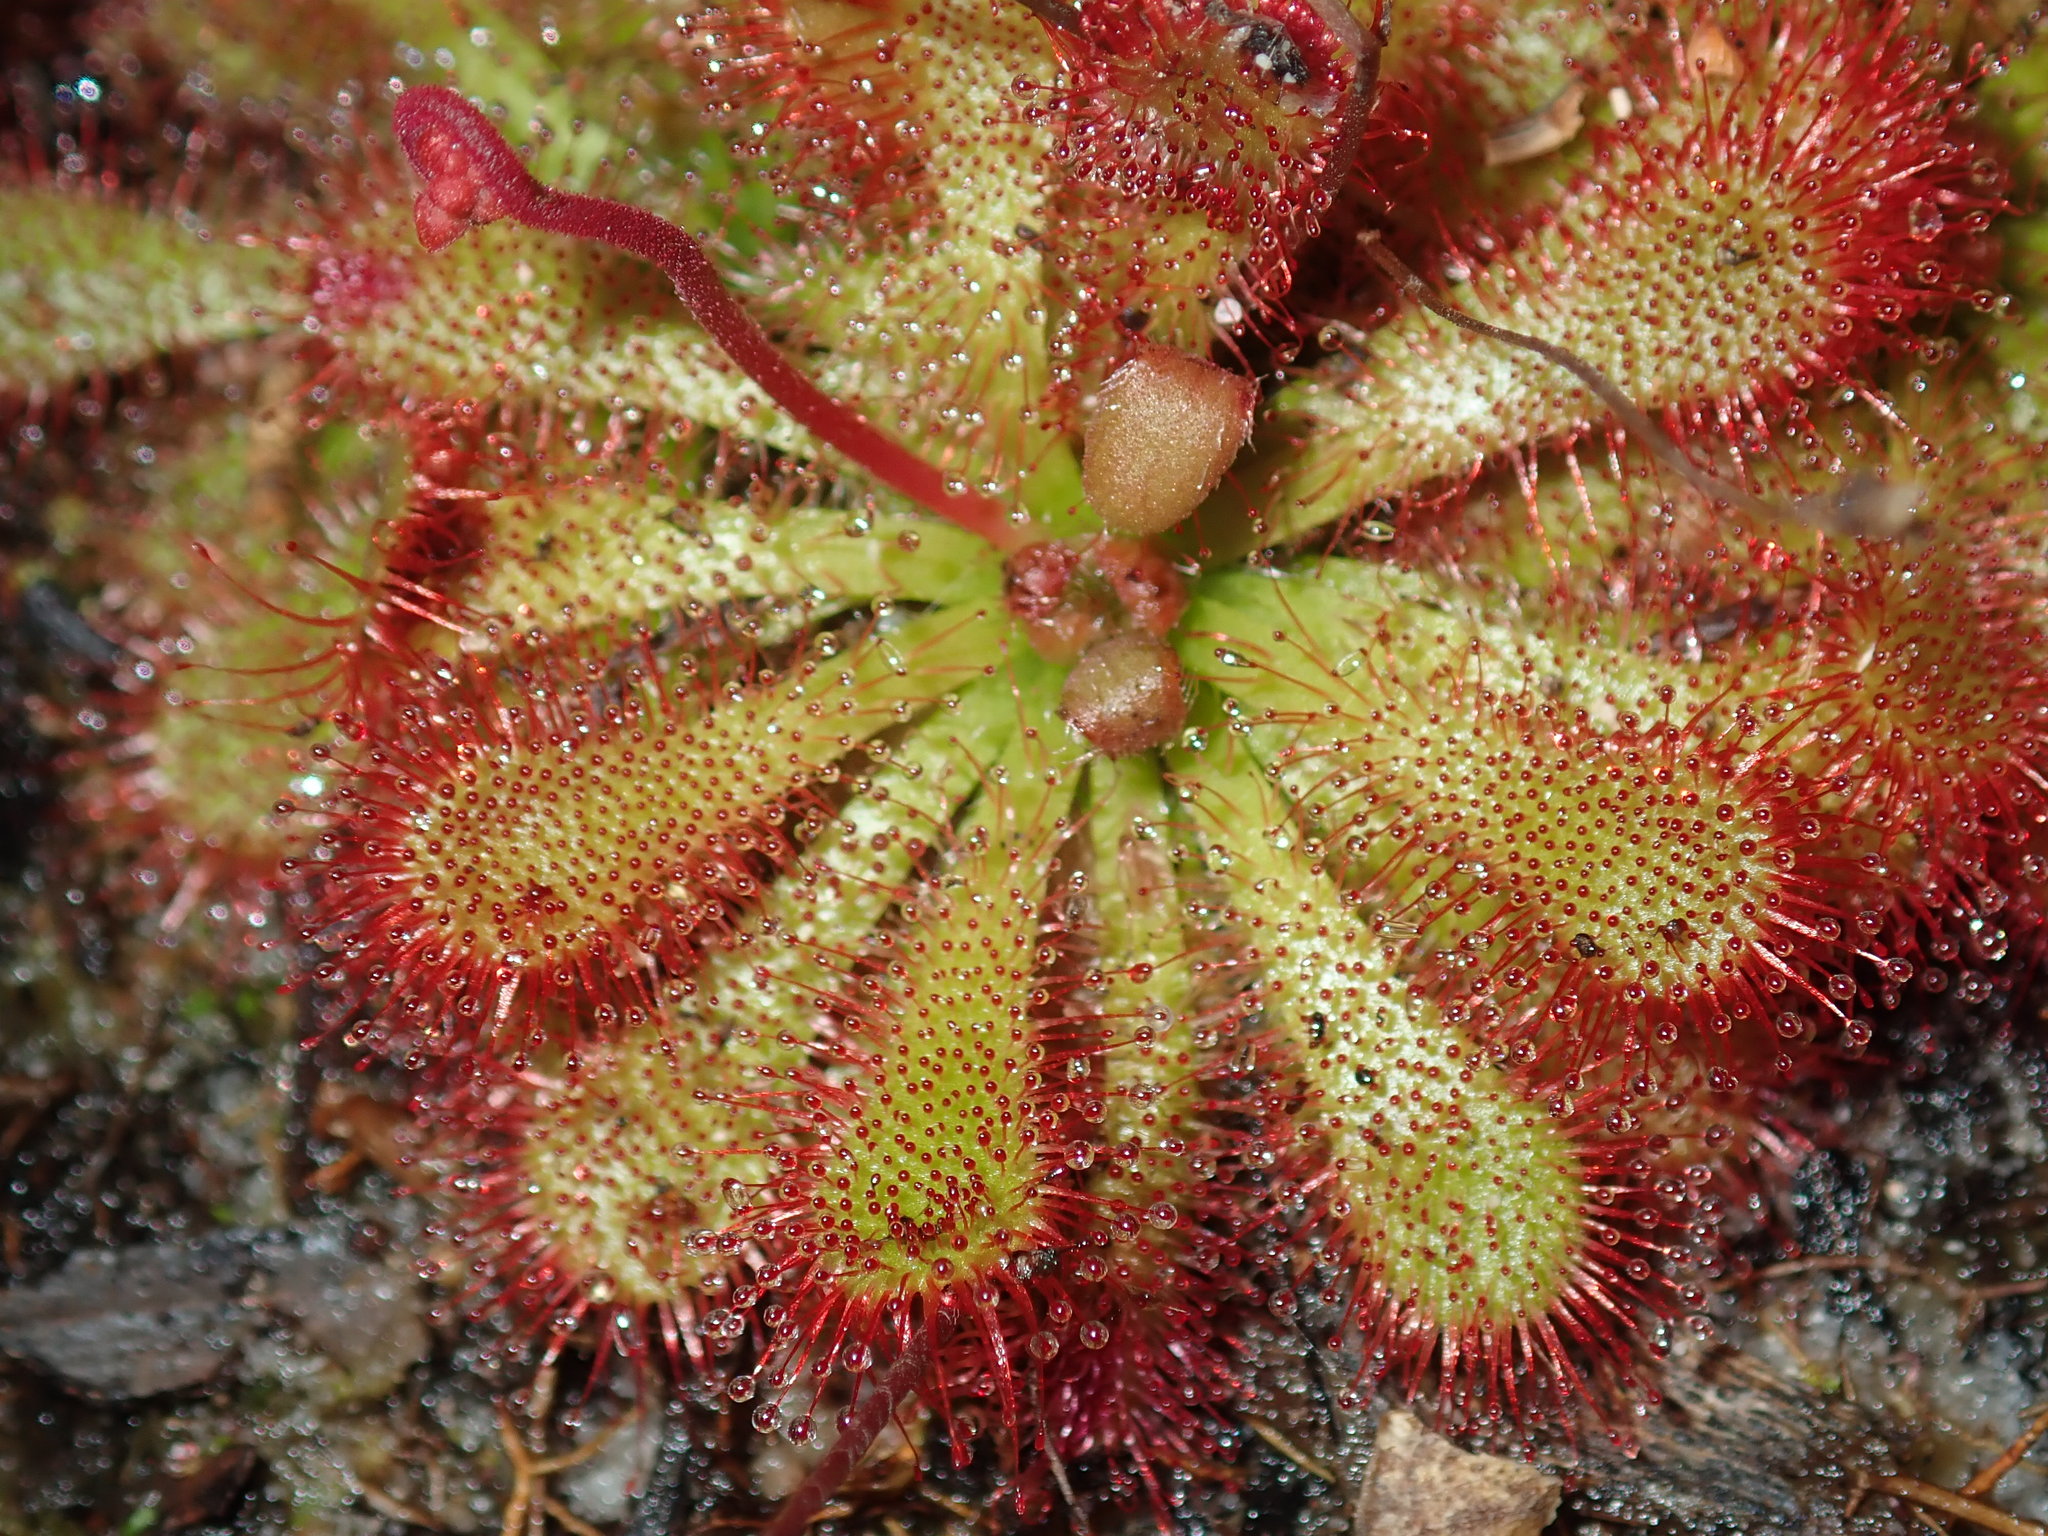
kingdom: Plantae
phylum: Tracheophyta
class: Magnoliopsida
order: Caryophyllales
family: Droseraceae
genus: Drosera
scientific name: Drosera spatulata
